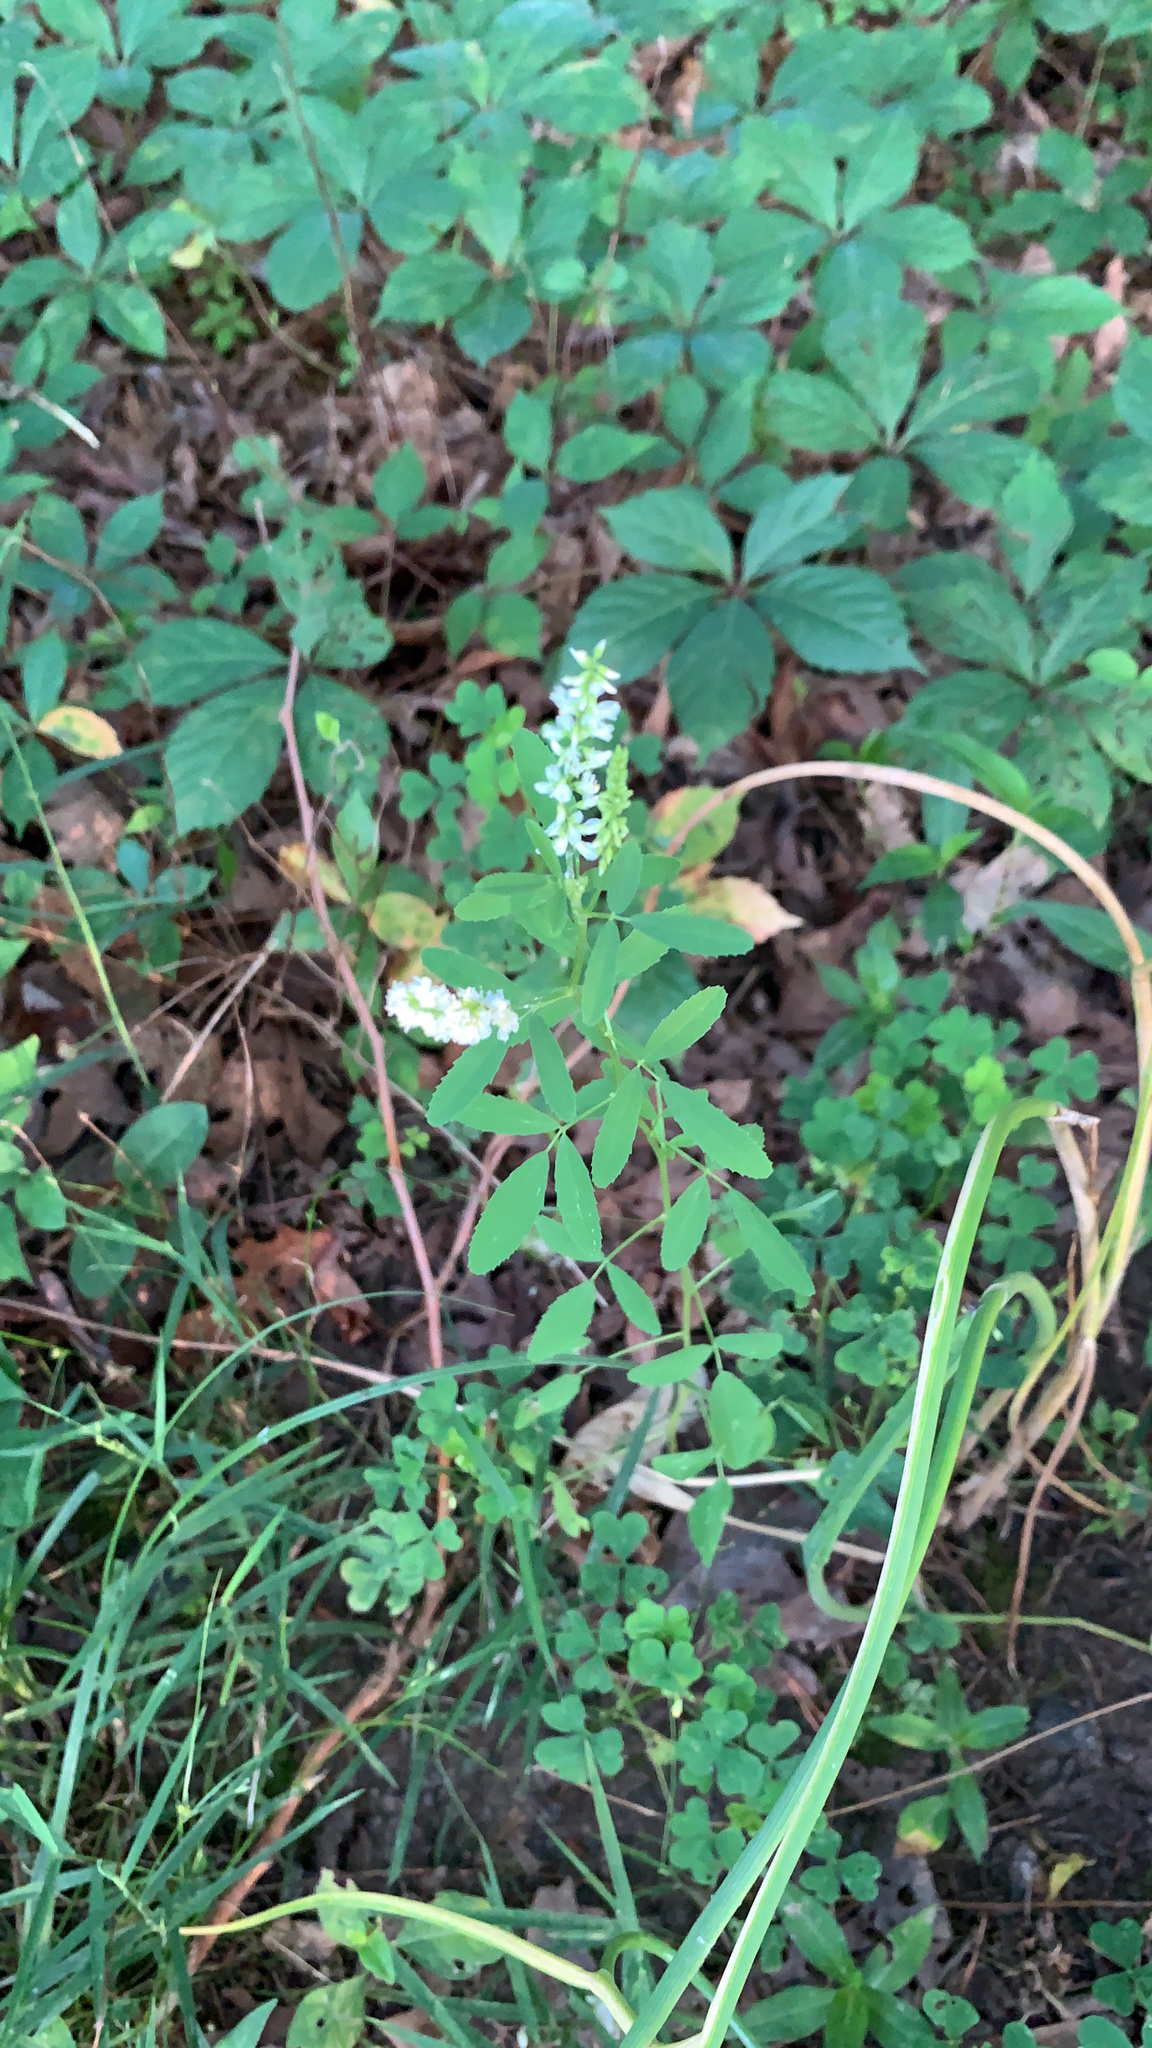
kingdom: Plantae
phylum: Tracheophyta
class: Magnoliopsida
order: Fabales
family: Fabaceae
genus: Melilotus
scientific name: Melilotus albus
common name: White melilot
